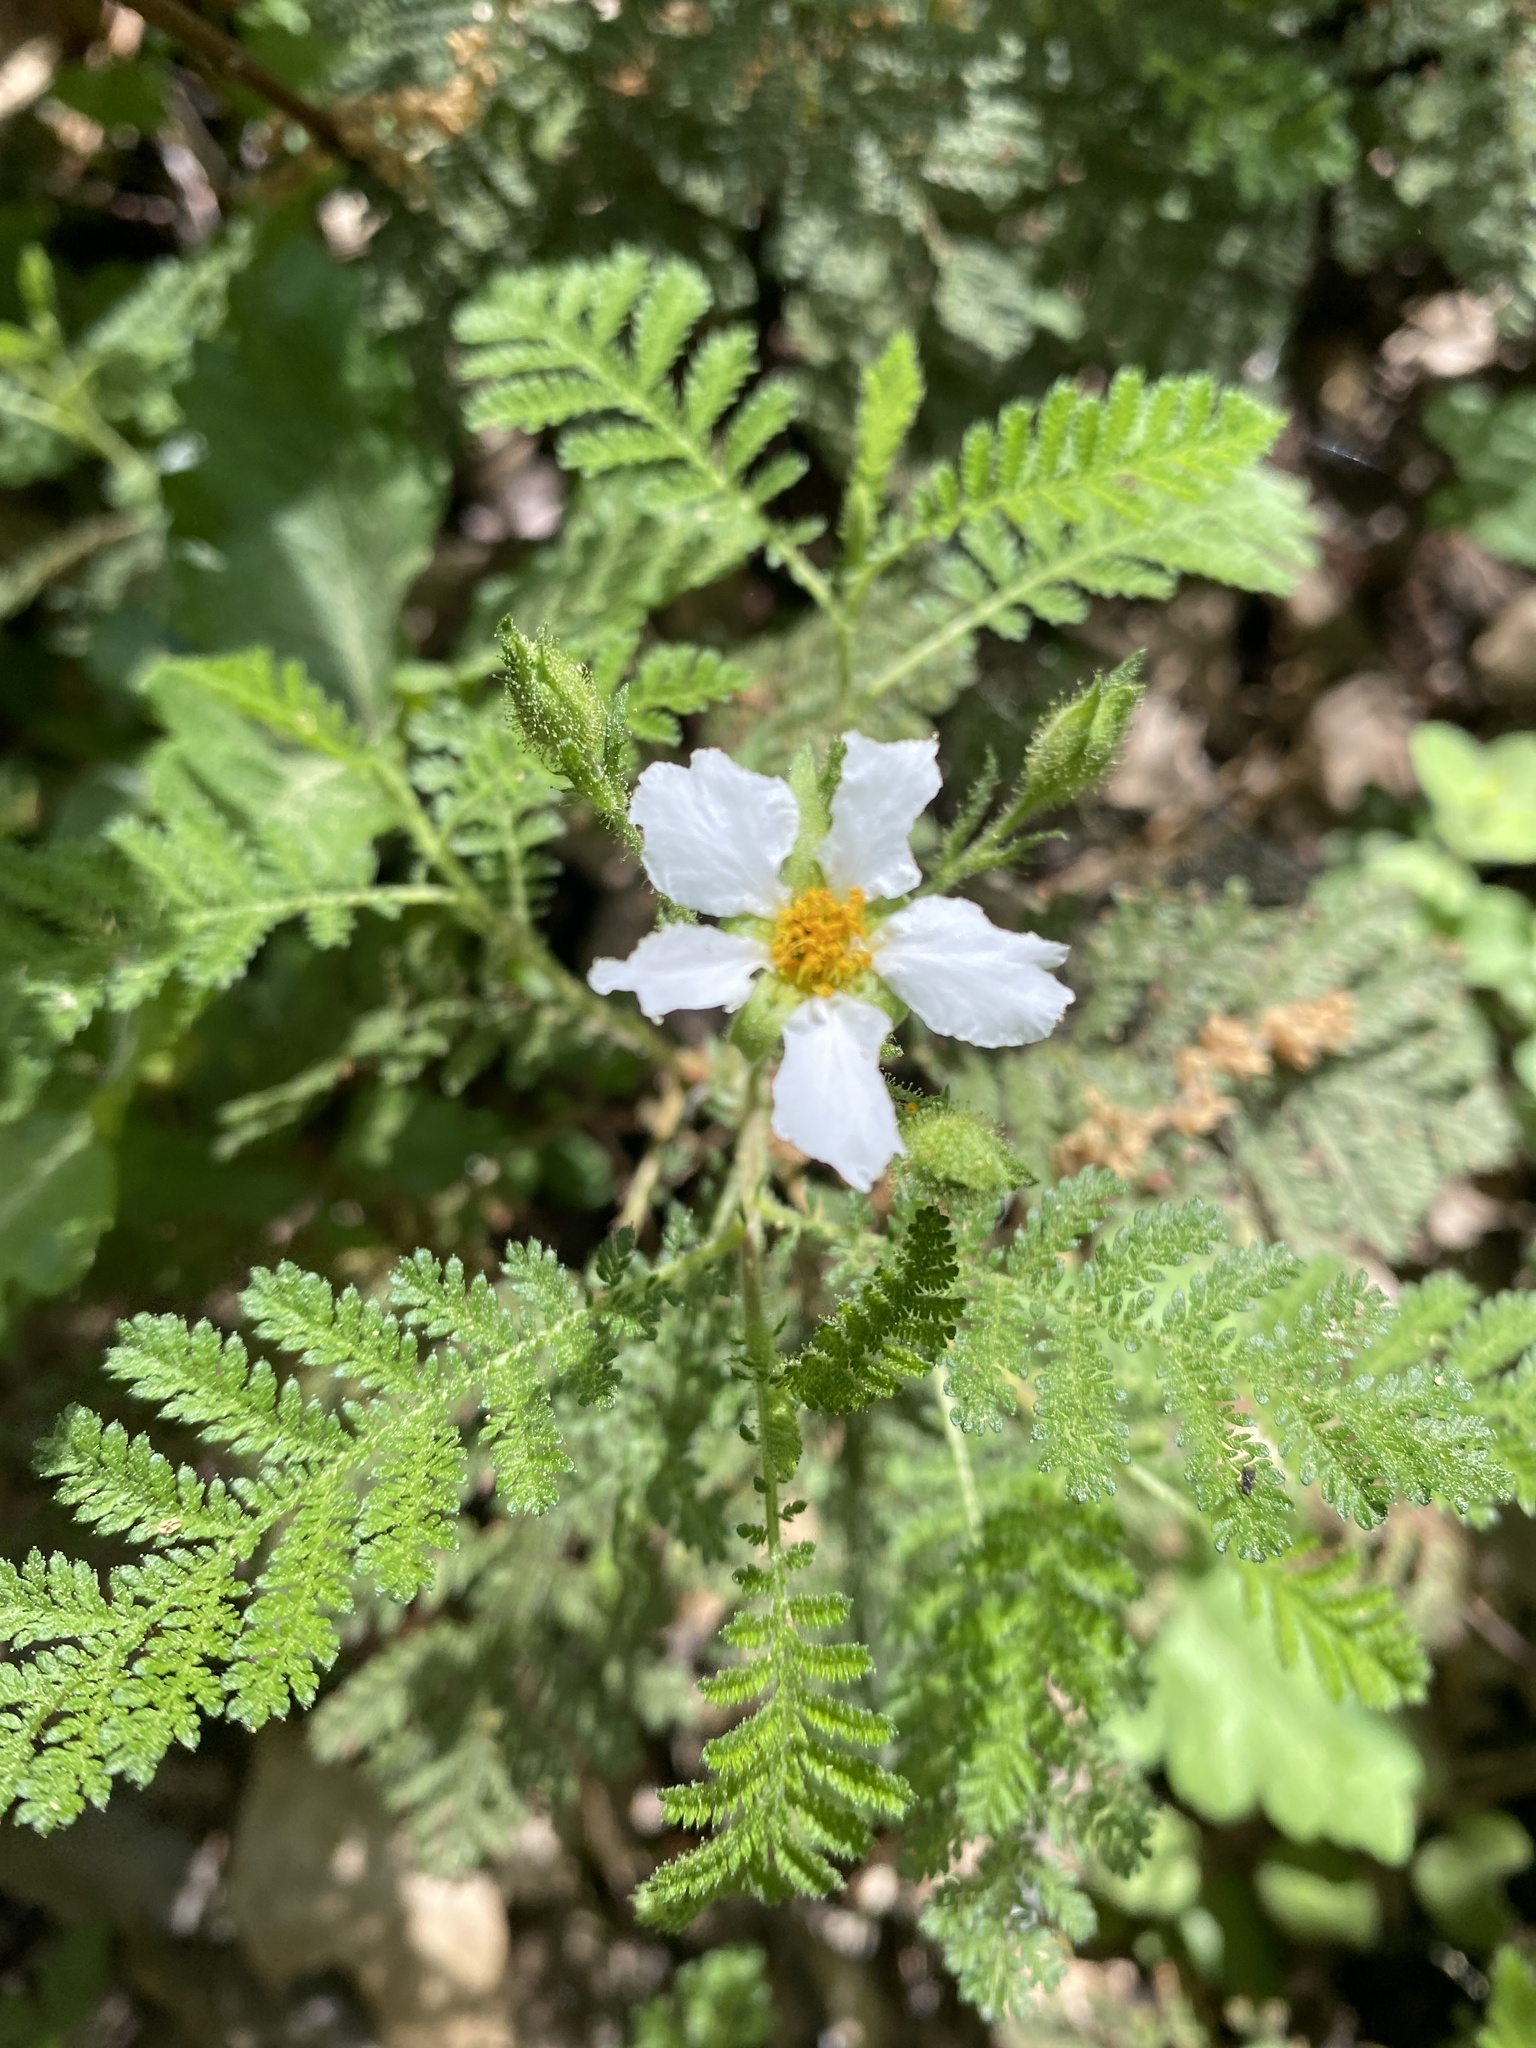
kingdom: Plantae
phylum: Tracheophyta
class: Magnoliopsida
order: Rosales
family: Rosaceae
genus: Chamaebatia
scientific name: Chamaebatia foliolosa
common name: Mountain misery
